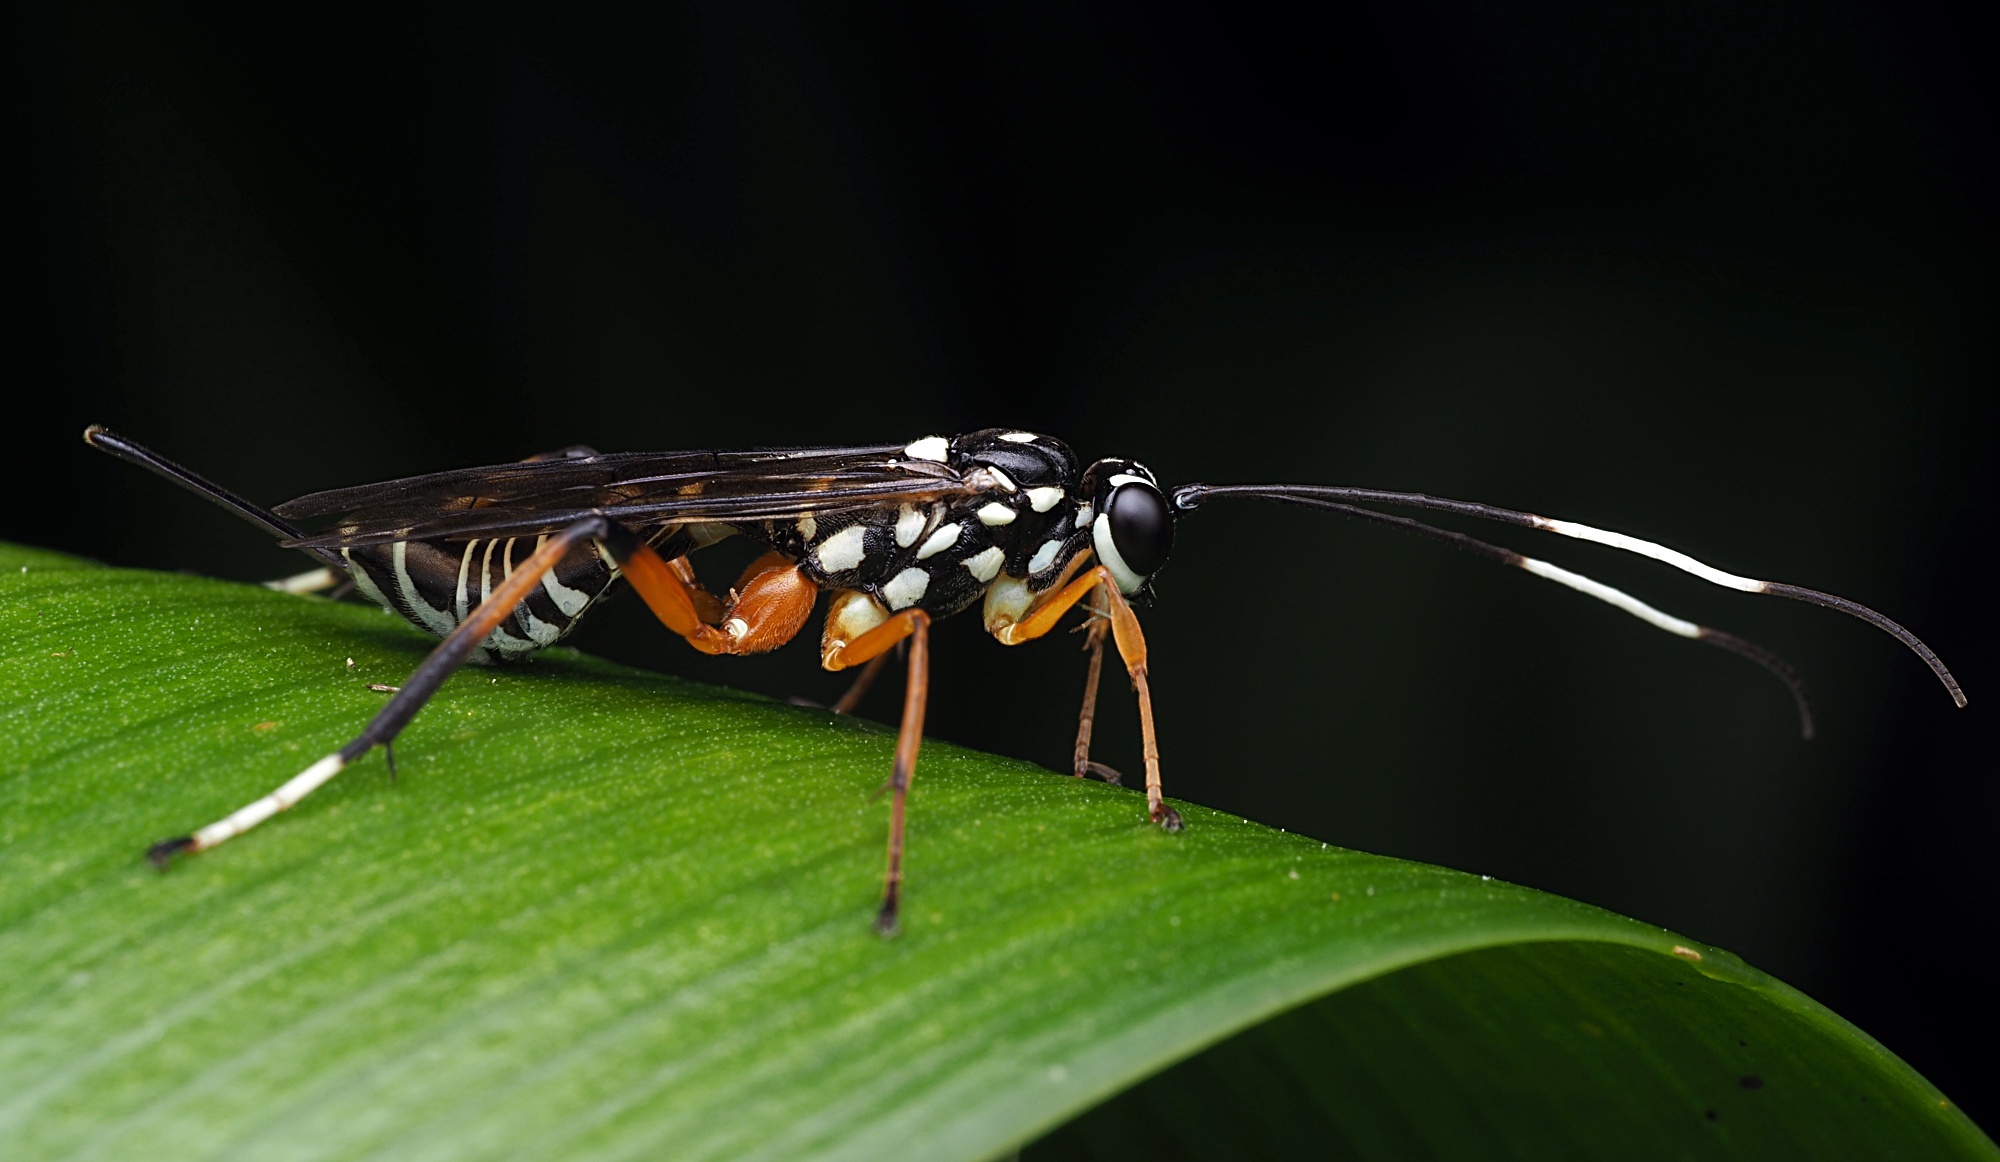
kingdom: Animalia
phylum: Arthropoda
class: Insecta
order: Hymenoptera
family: Ichneumonidae
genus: Xanthocryptus
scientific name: Xanthocryptus novozealandicus
